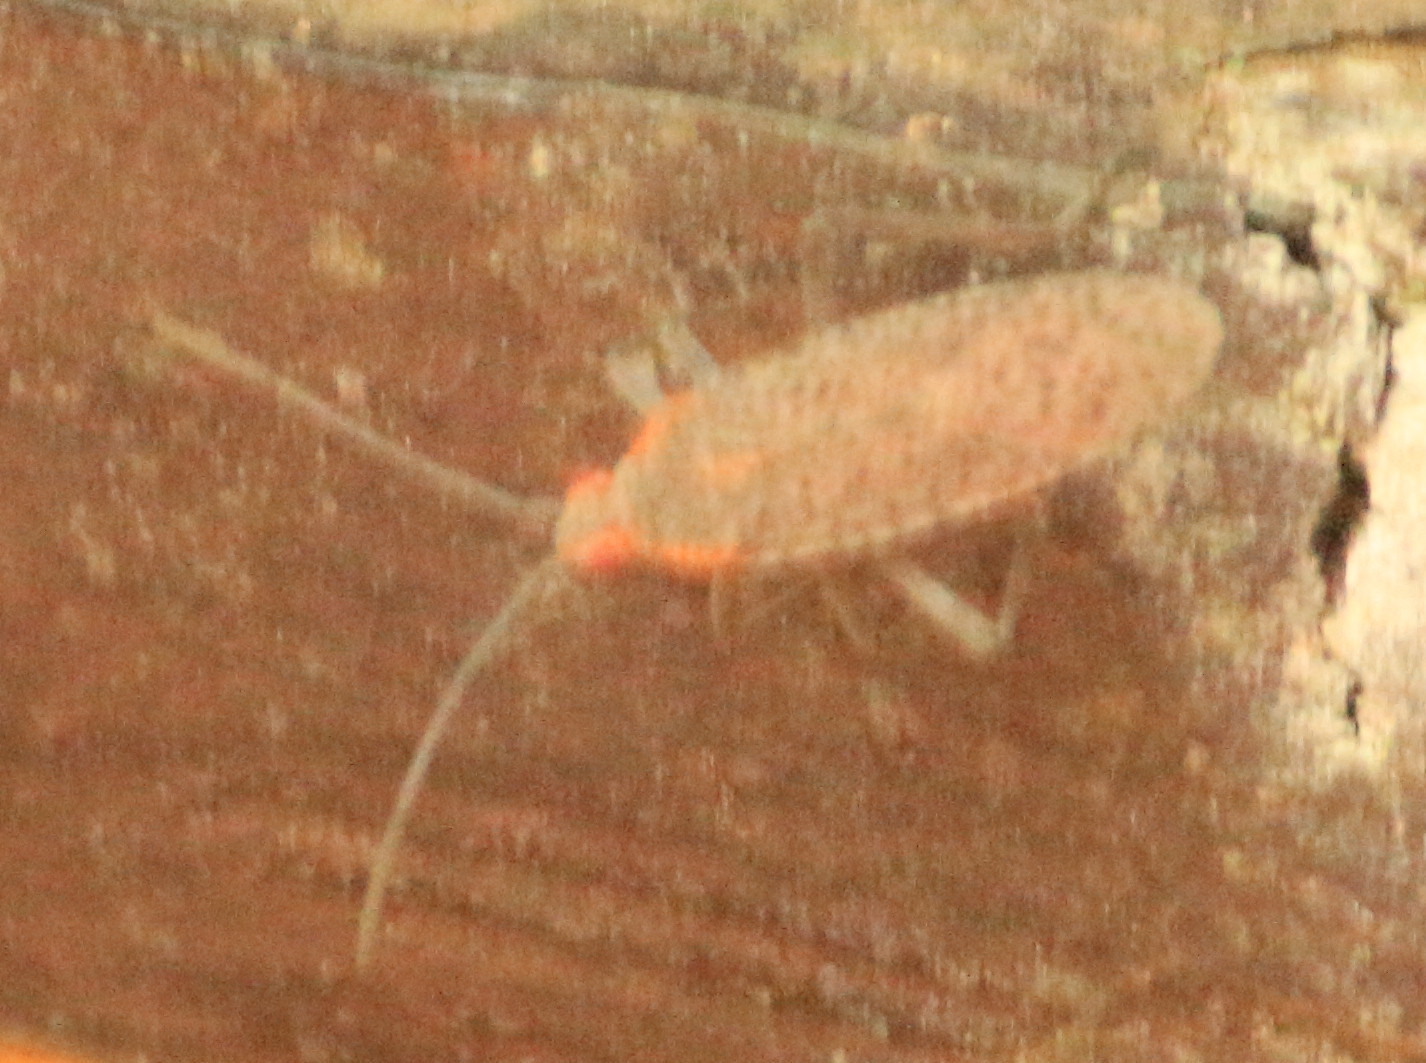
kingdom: Animalia
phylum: Arthropoda
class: Insecta
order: Hemiptera
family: Rhopalidae
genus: Jadera
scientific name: Jadera coturnix
